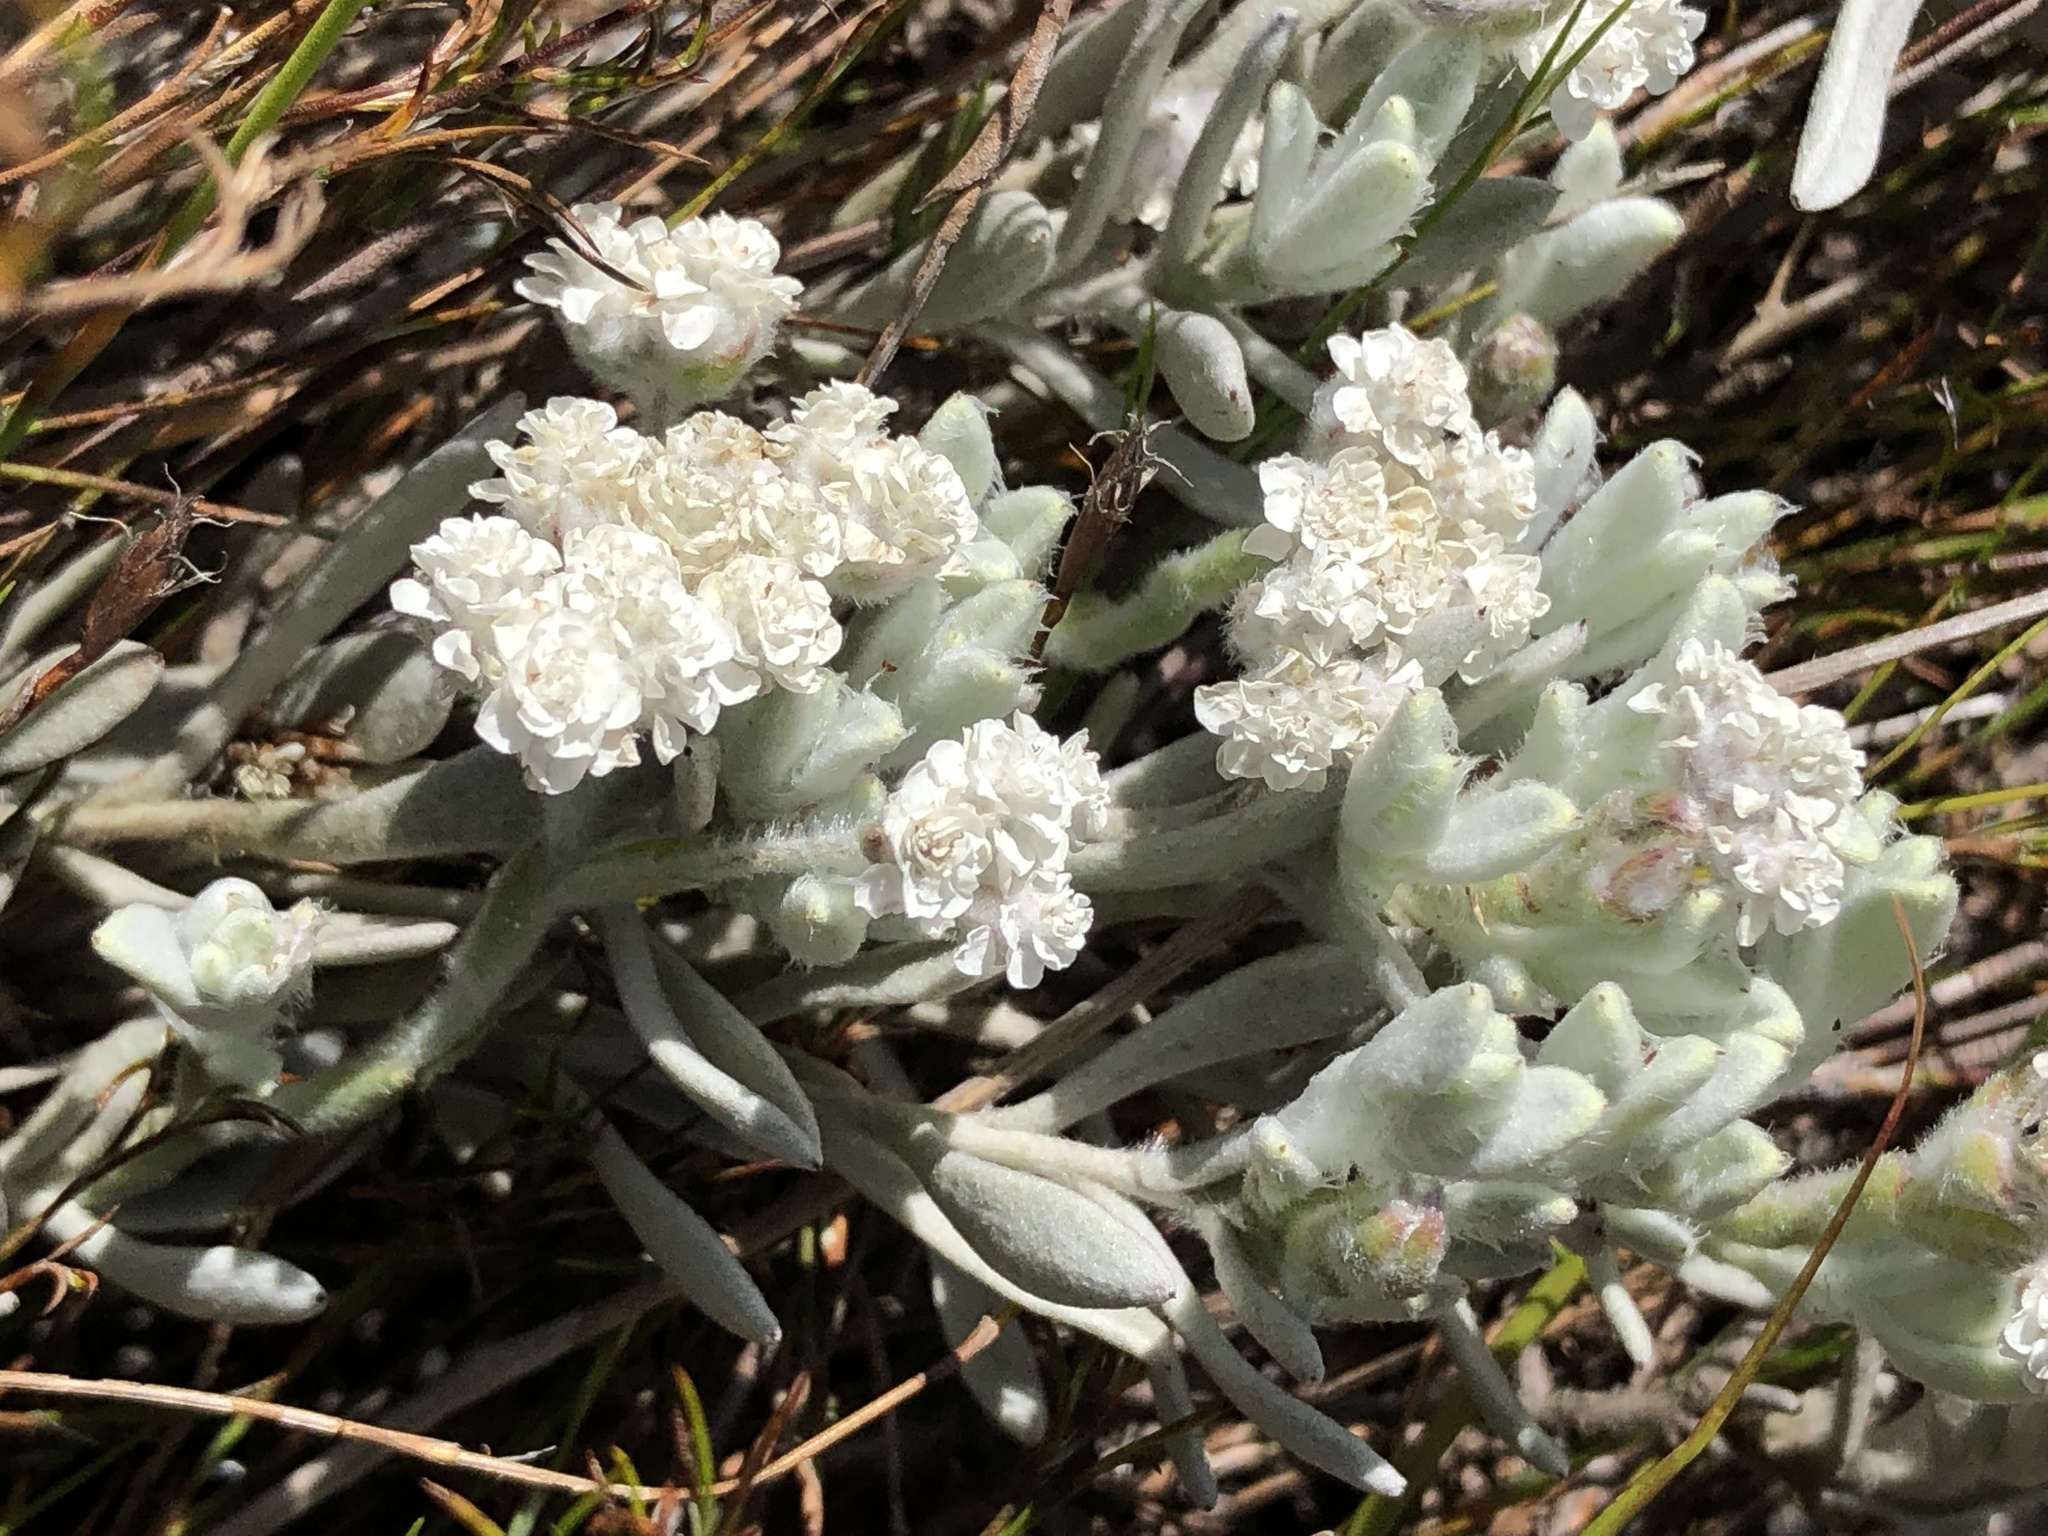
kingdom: Plantae
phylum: Tracheophyta
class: Magnoliopsida
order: Asterales
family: Asteraceae
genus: Petalacte
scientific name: Petalacte coronata
